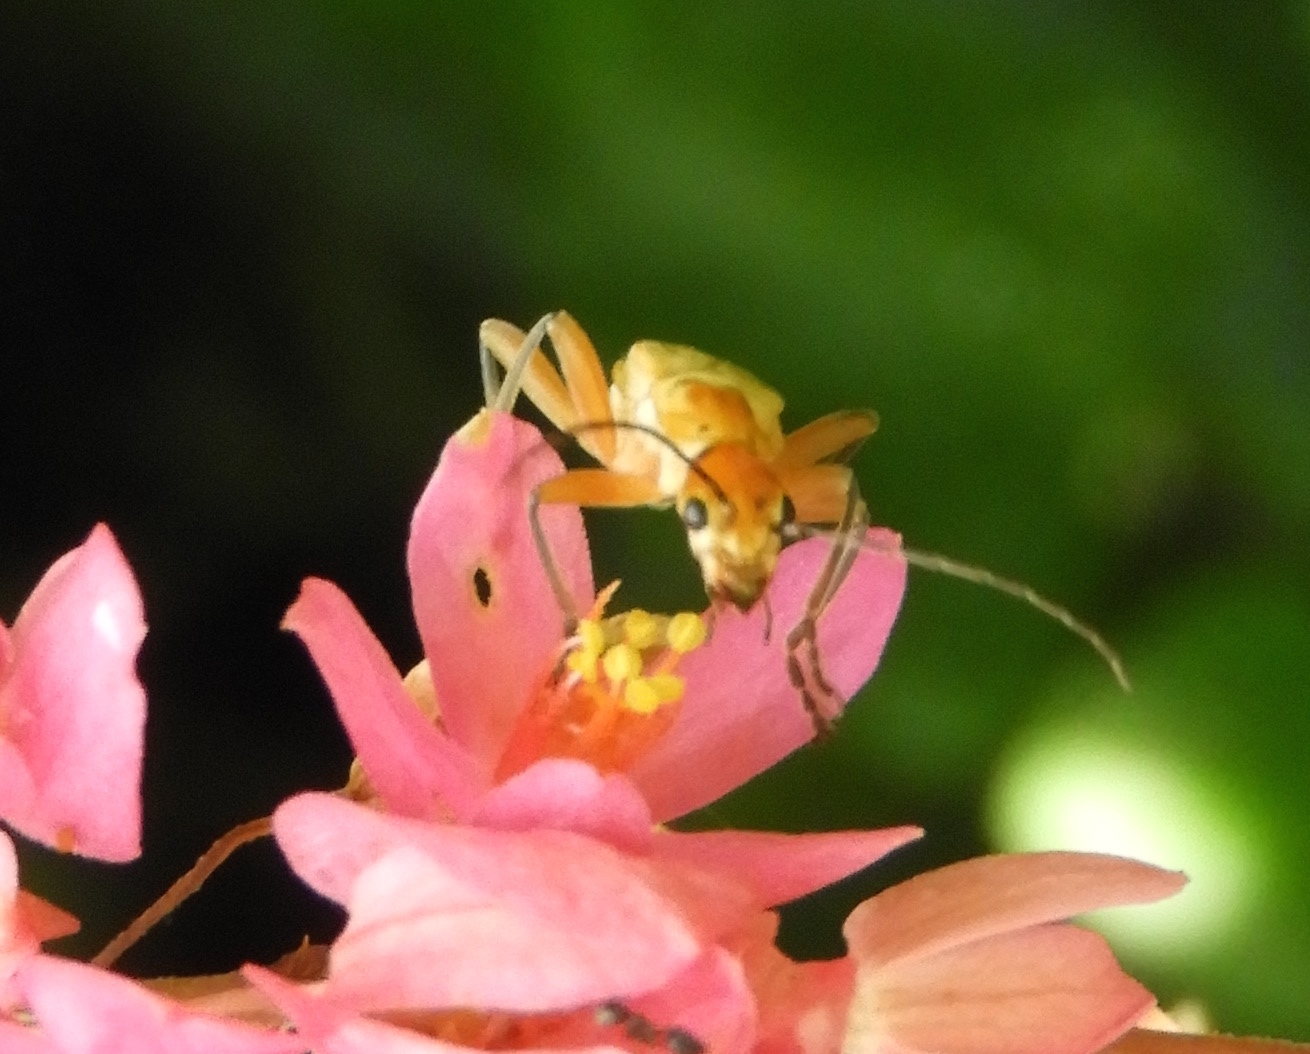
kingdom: Animalia
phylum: Arthropoda
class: Insecta
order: Coleoptera
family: Cantharidae
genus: Chauliognathus
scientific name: Chauliognathus
